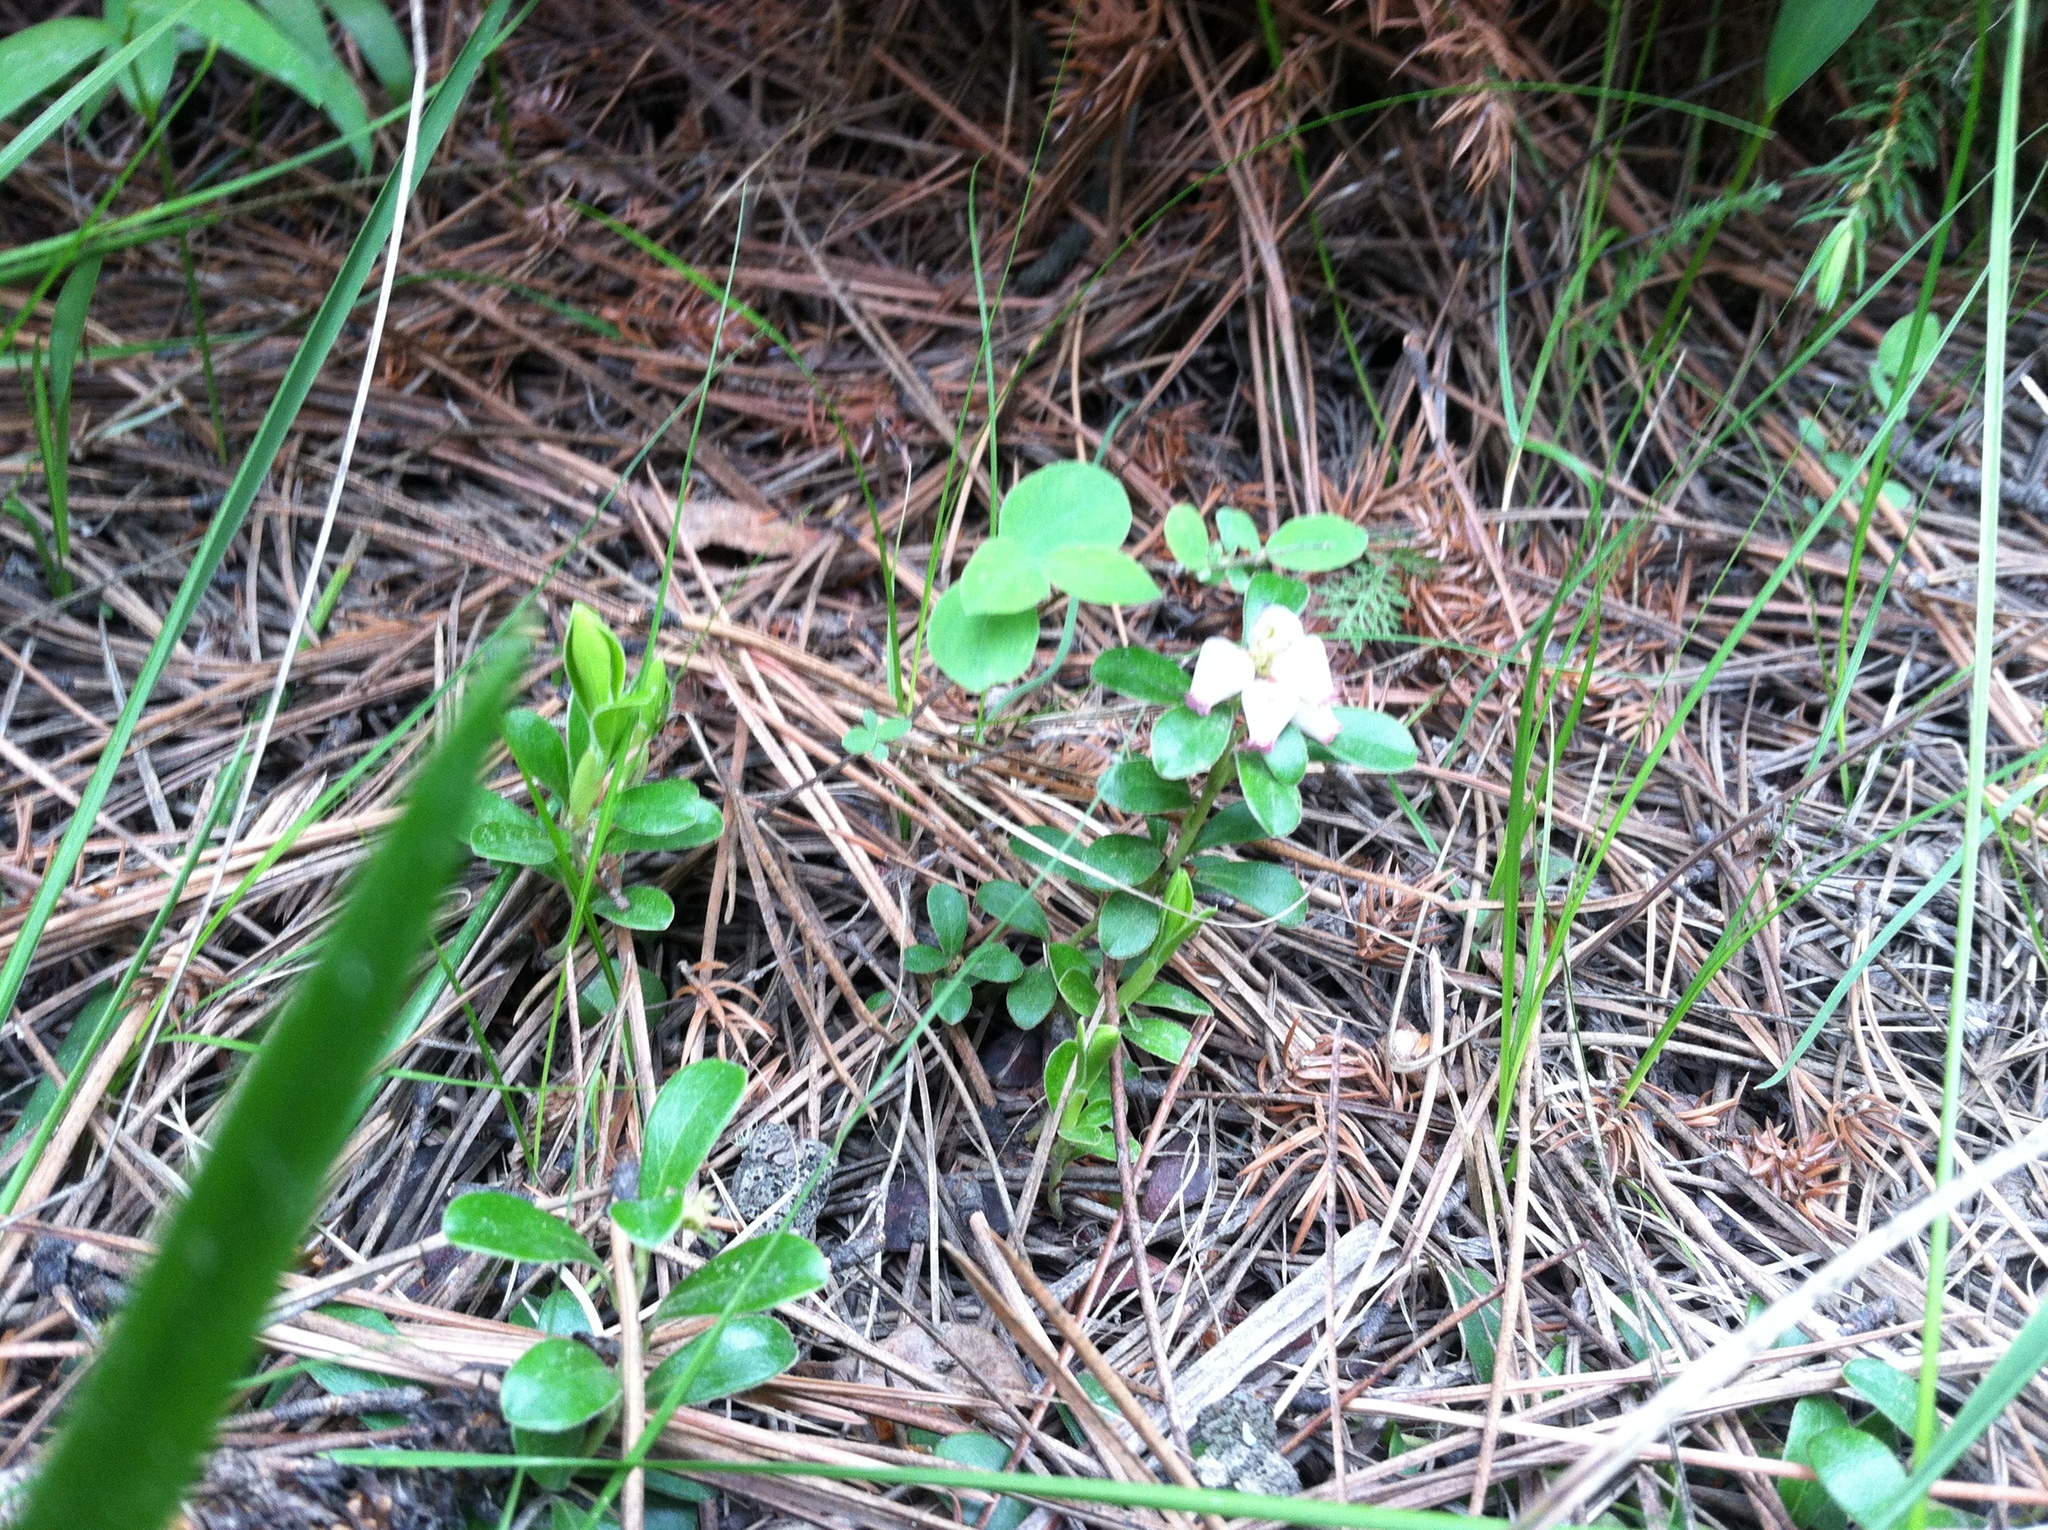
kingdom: Plantae
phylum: Tracheophyta
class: Magnoliopsida
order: Ericales
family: Ericaceae
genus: Arctostaphylos
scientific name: Arctostaphylos uva-ursi
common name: Bearberry
